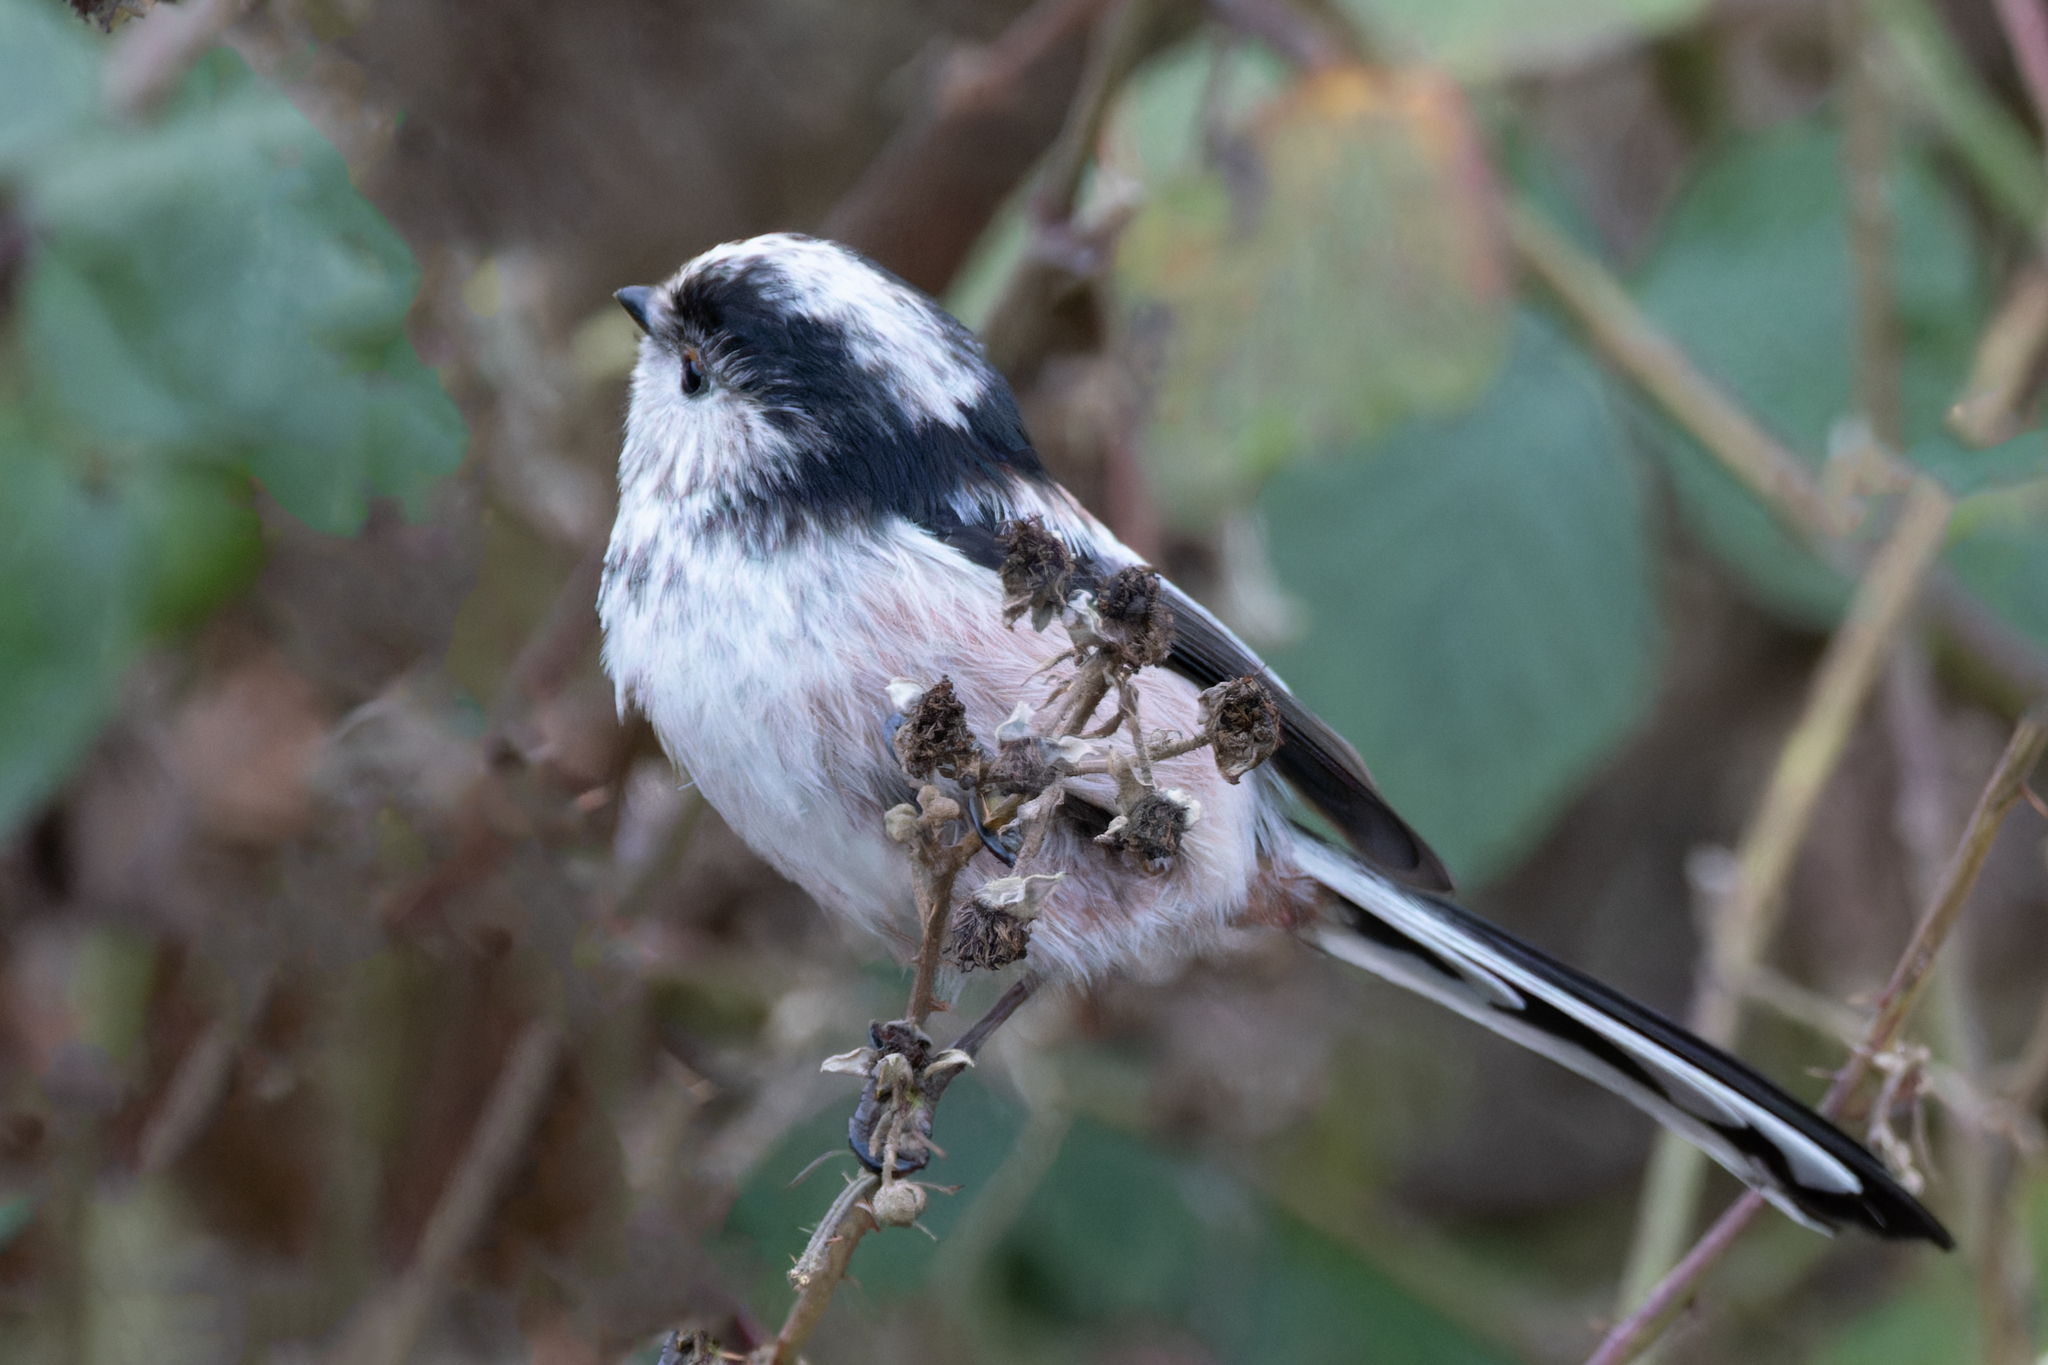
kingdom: Animalia
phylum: Chordata
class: Aves
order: Passeriformes
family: Aegithalidae
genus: Aegithalos
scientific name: Aegithalos caudatus
